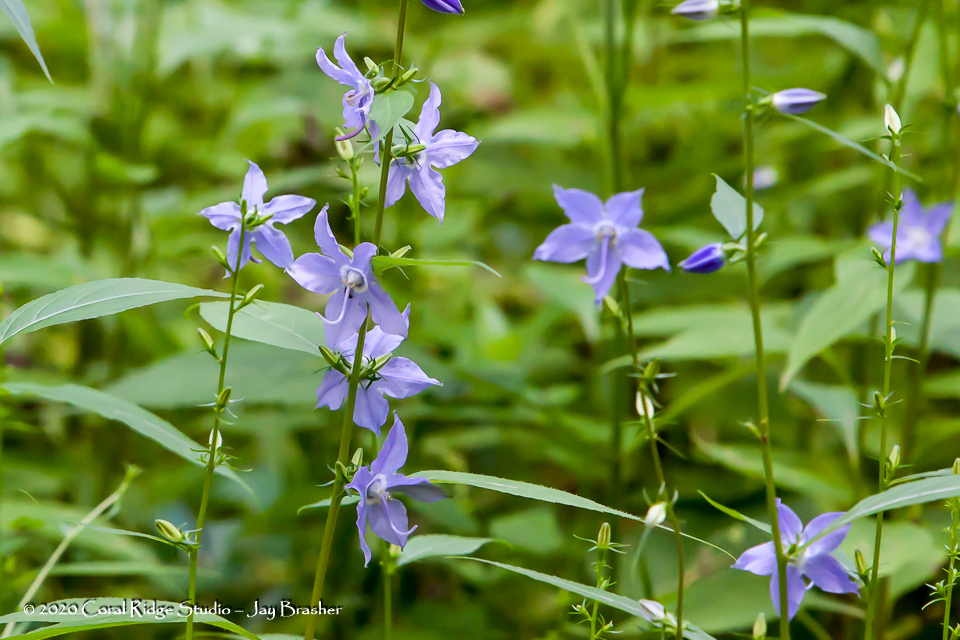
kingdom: Plantae
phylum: Tracheophyta
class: Magnoliopsida
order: Asterales
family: Campanulaceae
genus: Campanulastrum
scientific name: Campanulastrum americanum
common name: American bellflower
